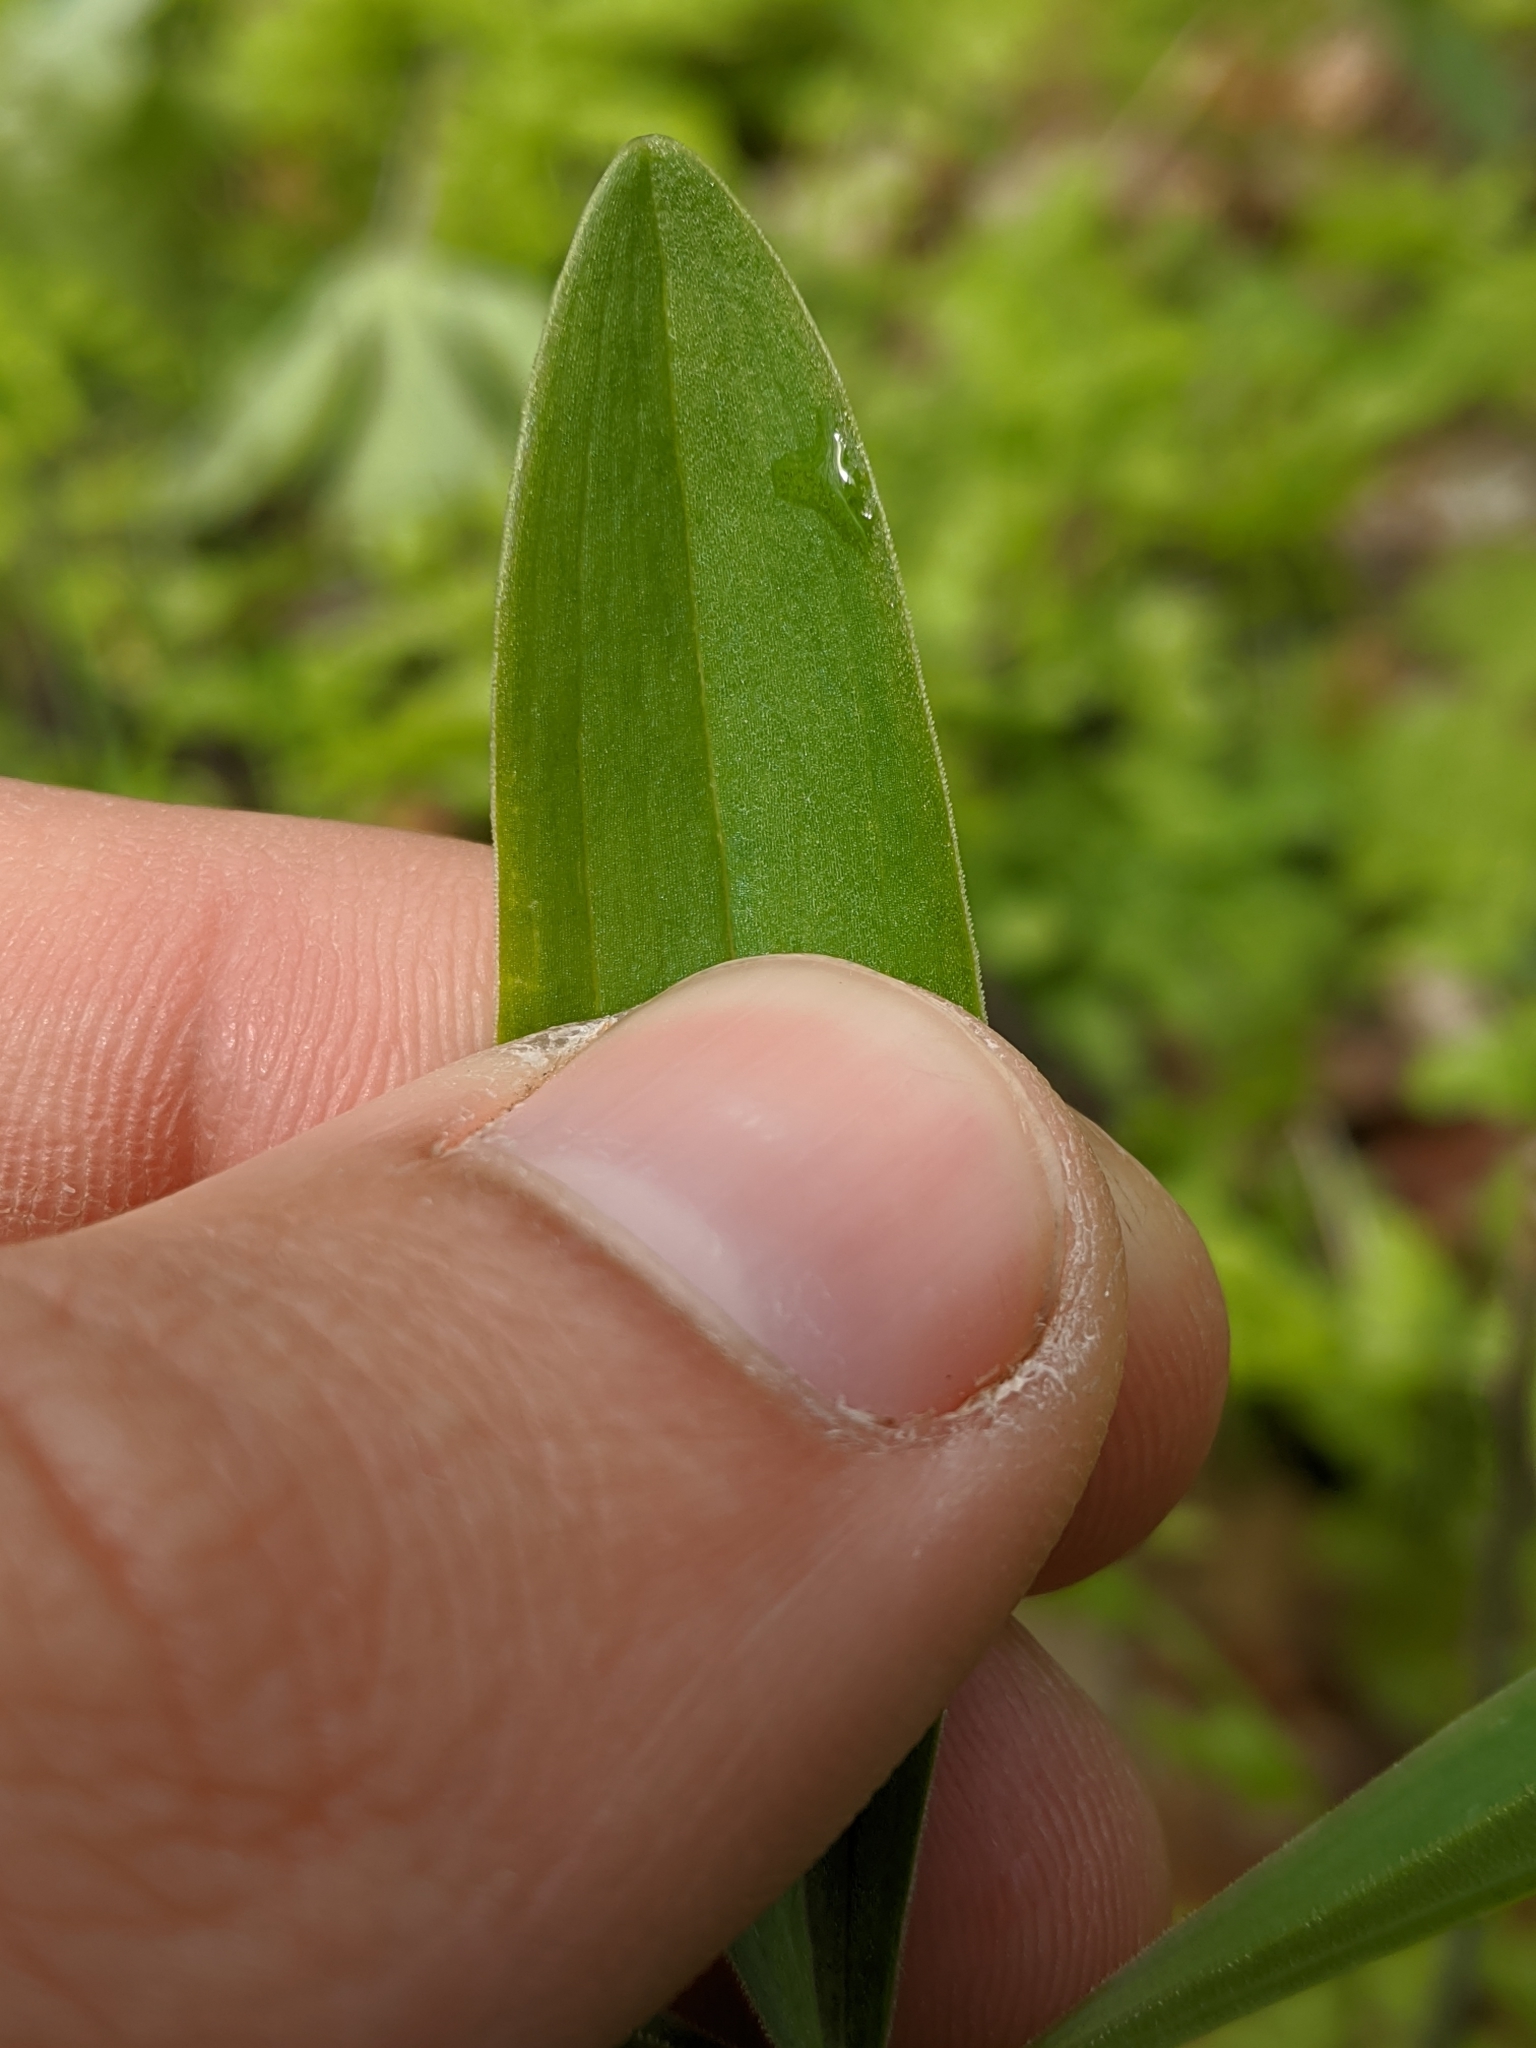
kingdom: Plantae
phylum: Tracheophyta
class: Liliopsida
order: Liliales
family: Liliaceae
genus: Lilium
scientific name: Lilium michiganense
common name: Michigan lily
